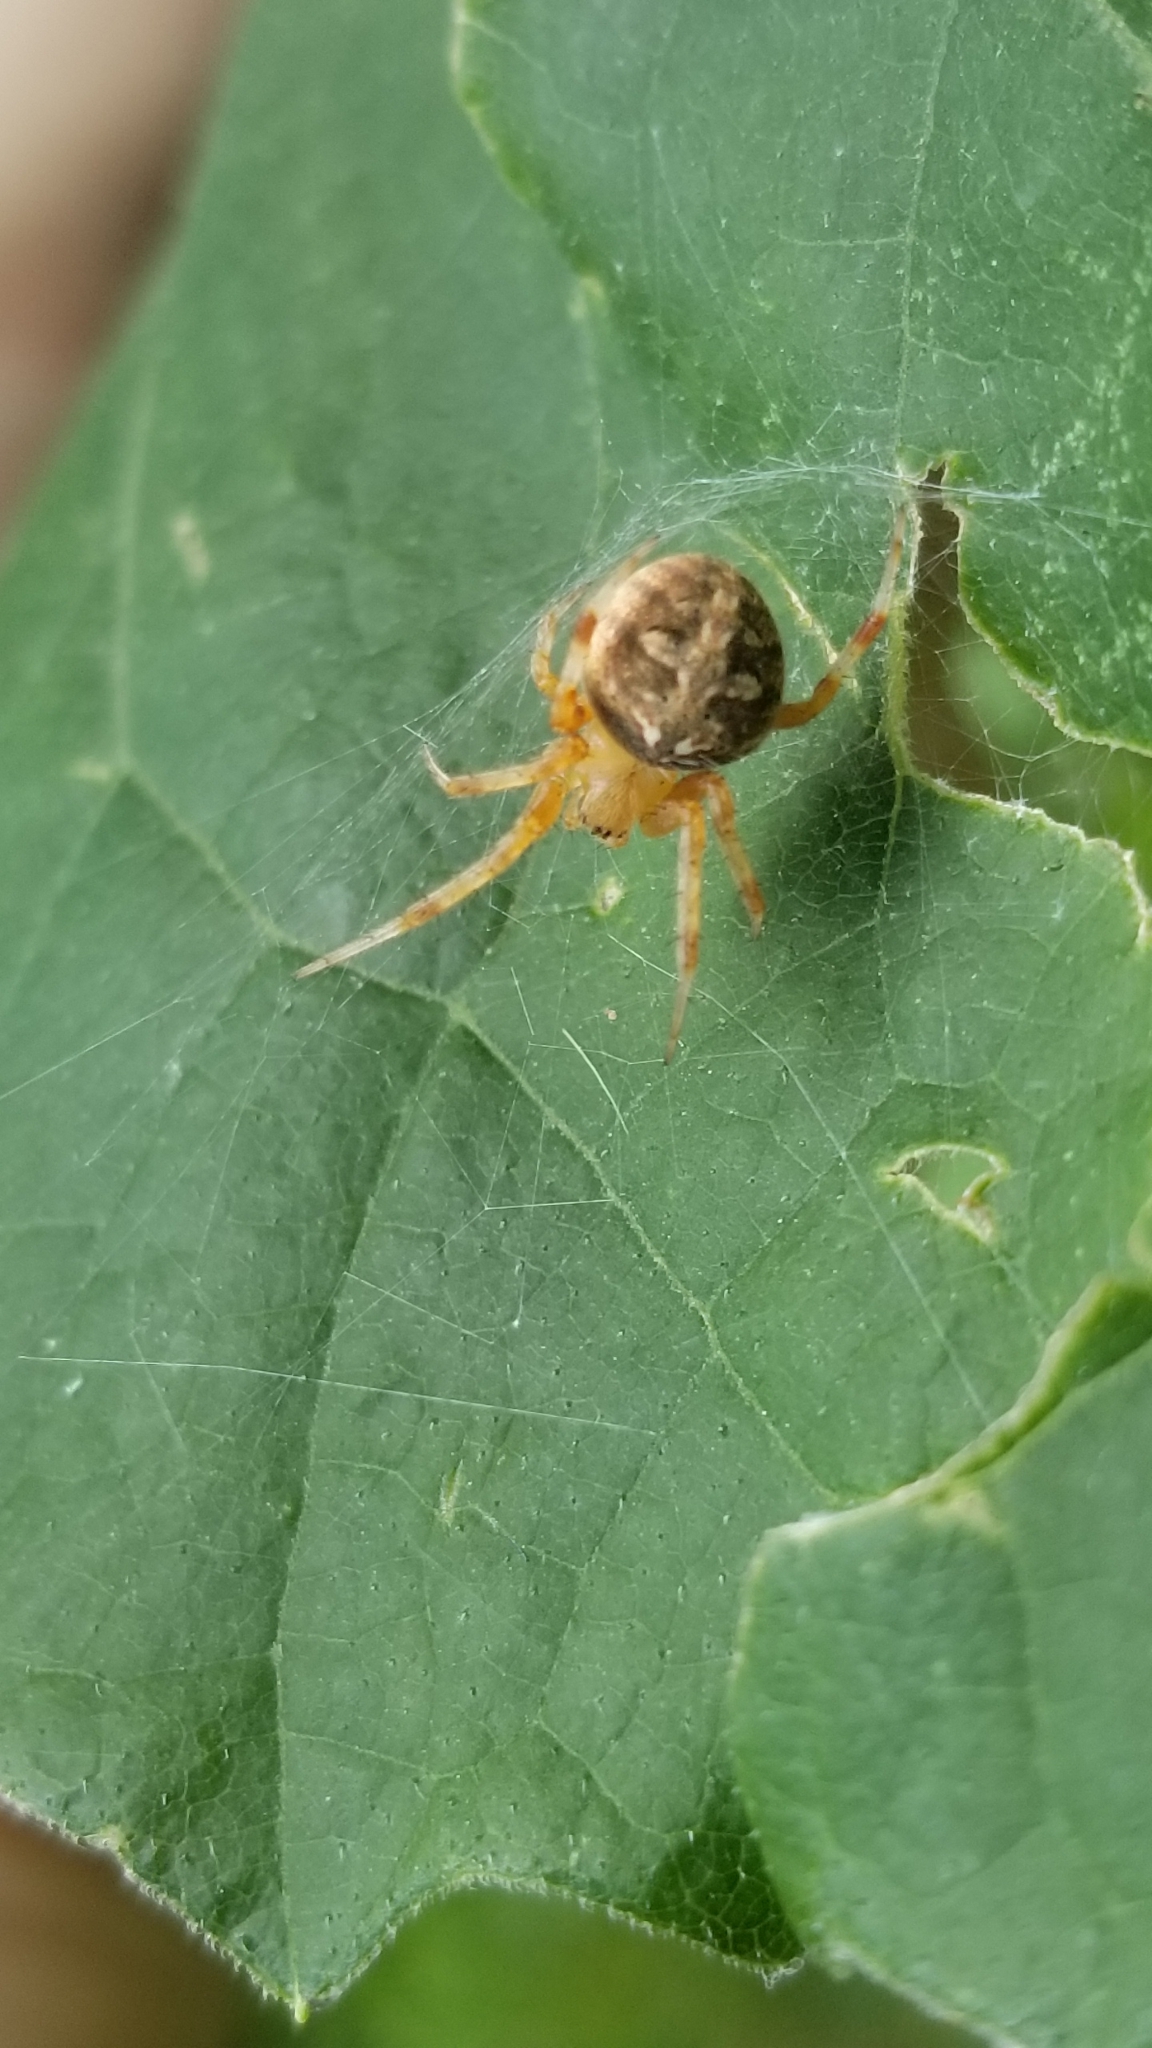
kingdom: Animalia
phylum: Arthropoda
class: Arachnida
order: Araneae
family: Araneidae
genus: Neoscona
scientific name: Neoscona arabesca
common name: Orb weavers
